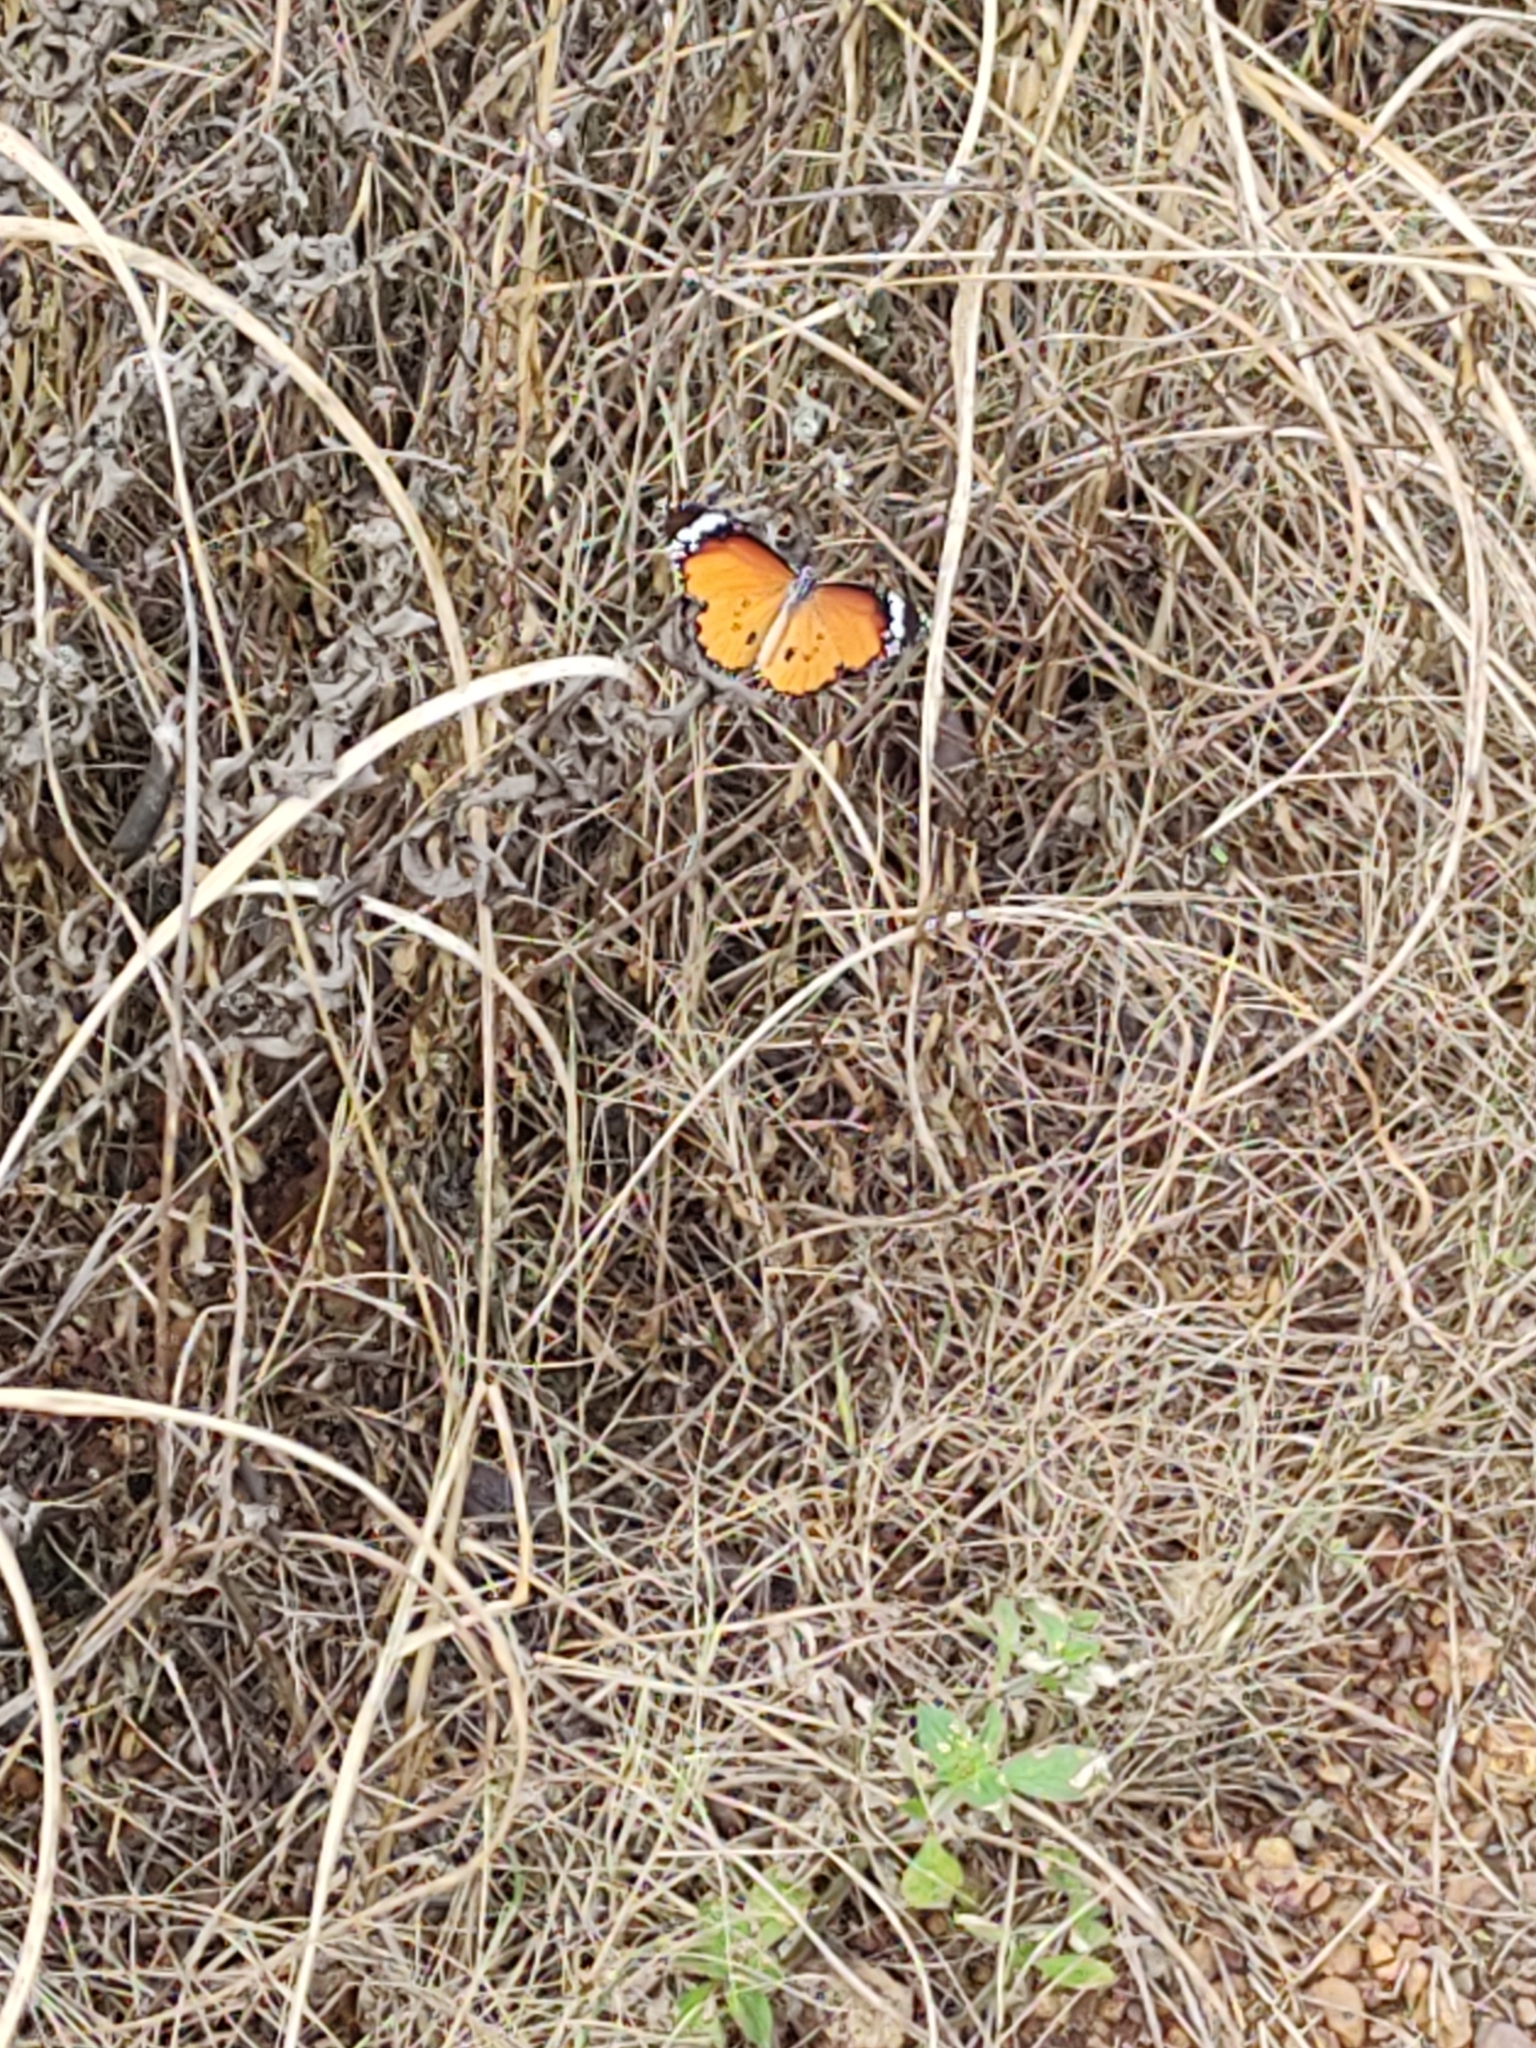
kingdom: Animalia
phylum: Arthropoda
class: Insecta
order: Lepidoptera
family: Nymphalidae
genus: Danaus
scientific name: Danaus chrysippus
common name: Plain tiger
